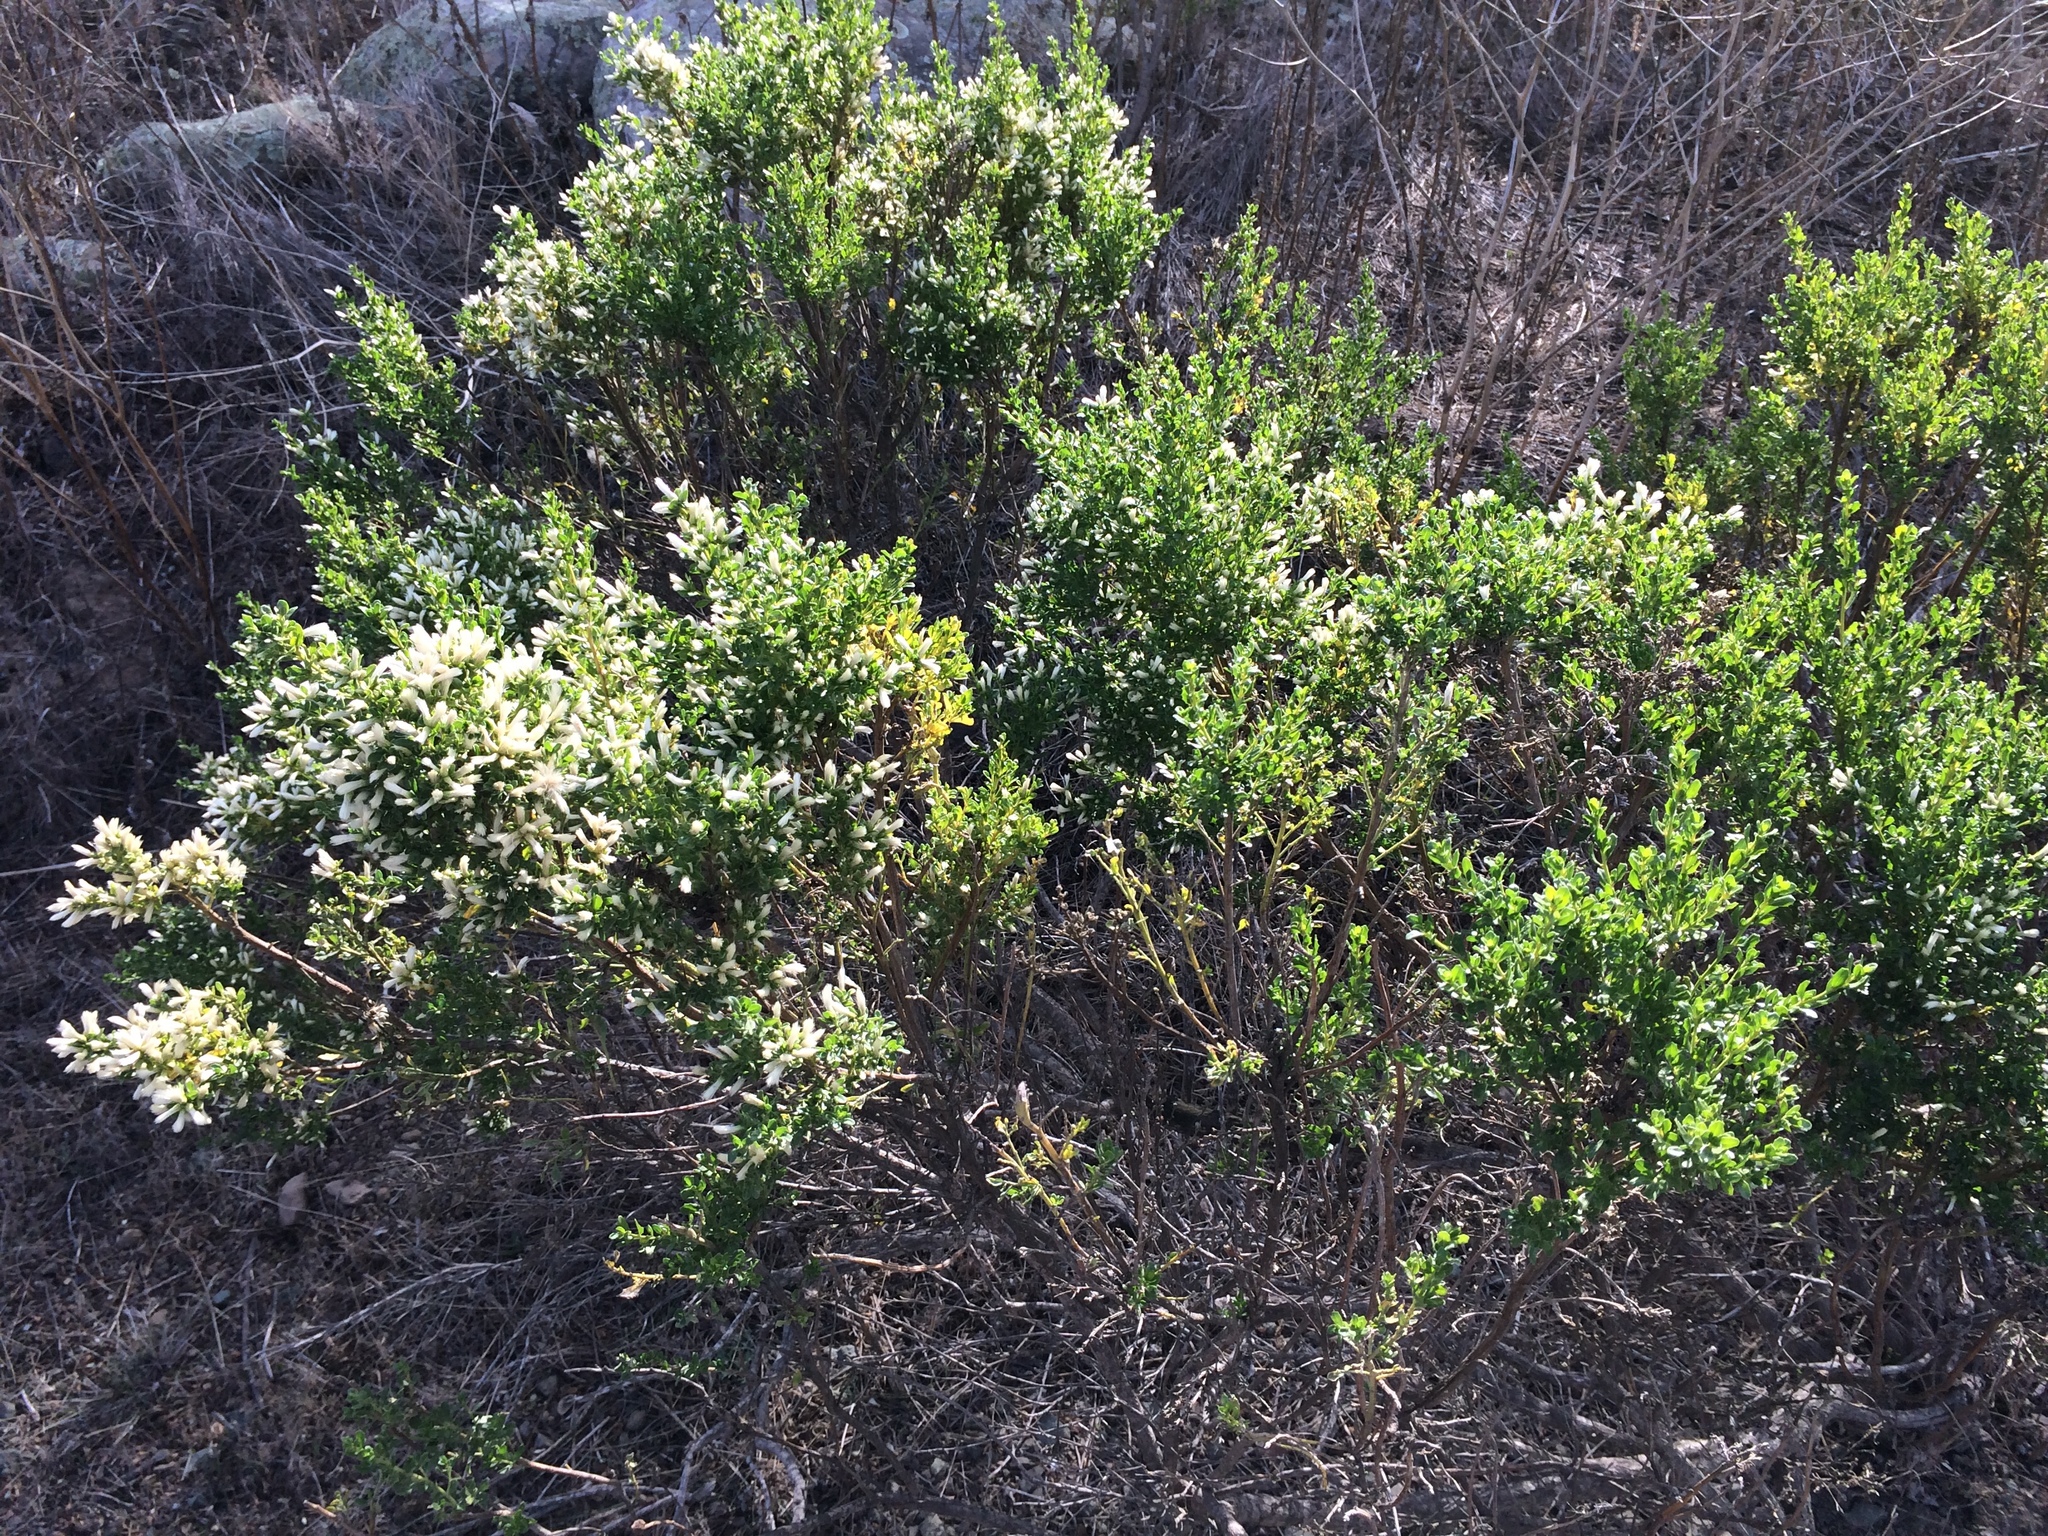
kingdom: Plantae
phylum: Tracheophyta
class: Magnoliopsida
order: Asterales
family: Asteraceae
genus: Baccharis
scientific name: Baccharis pilularis
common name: Coyotebrush
